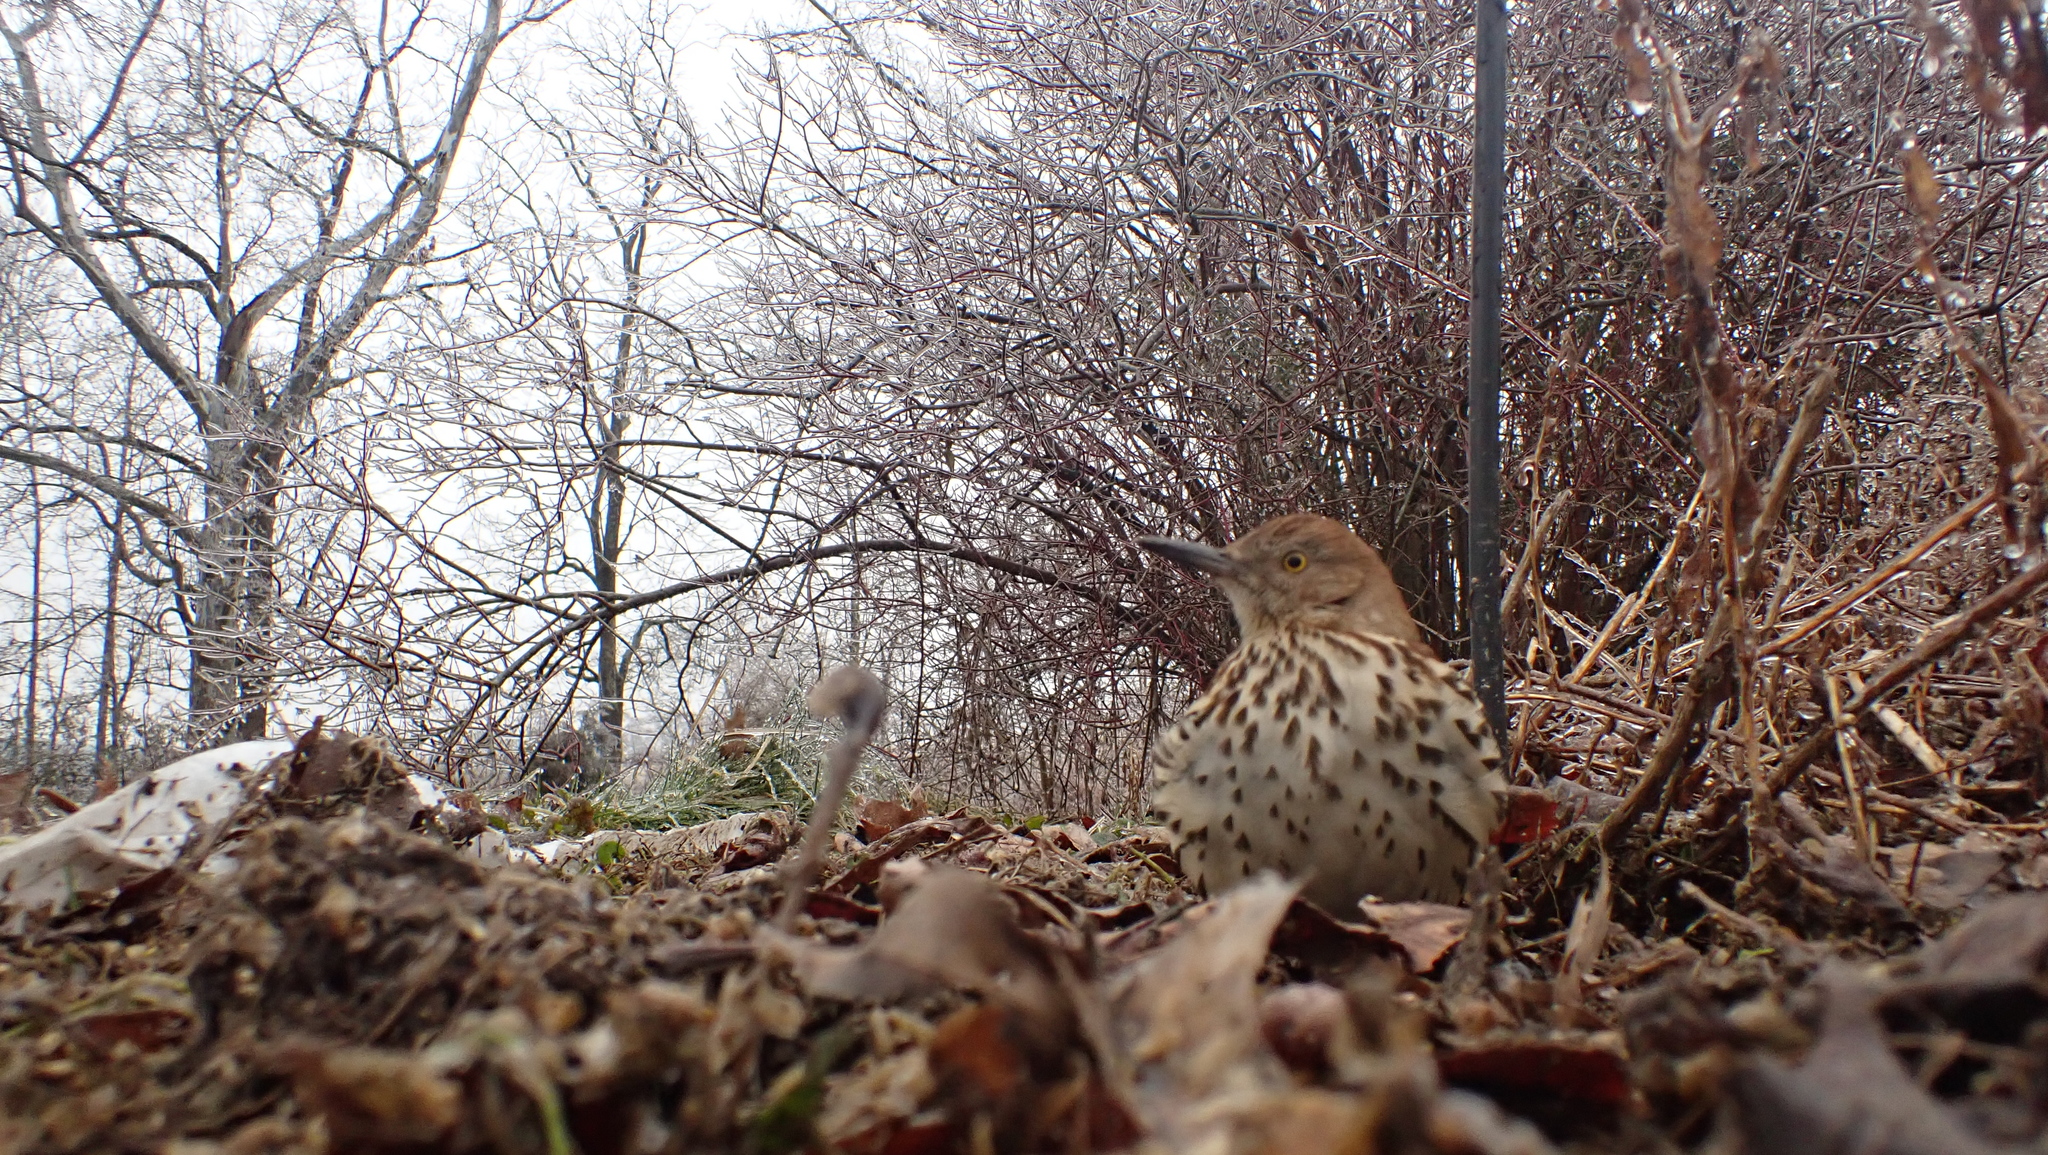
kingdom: Animalia
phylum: Chordata
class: Aves
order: Passeriformes
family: Mimidae
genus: Toxostoma
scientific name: Toxostoma rufum
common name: Brown thrasher
